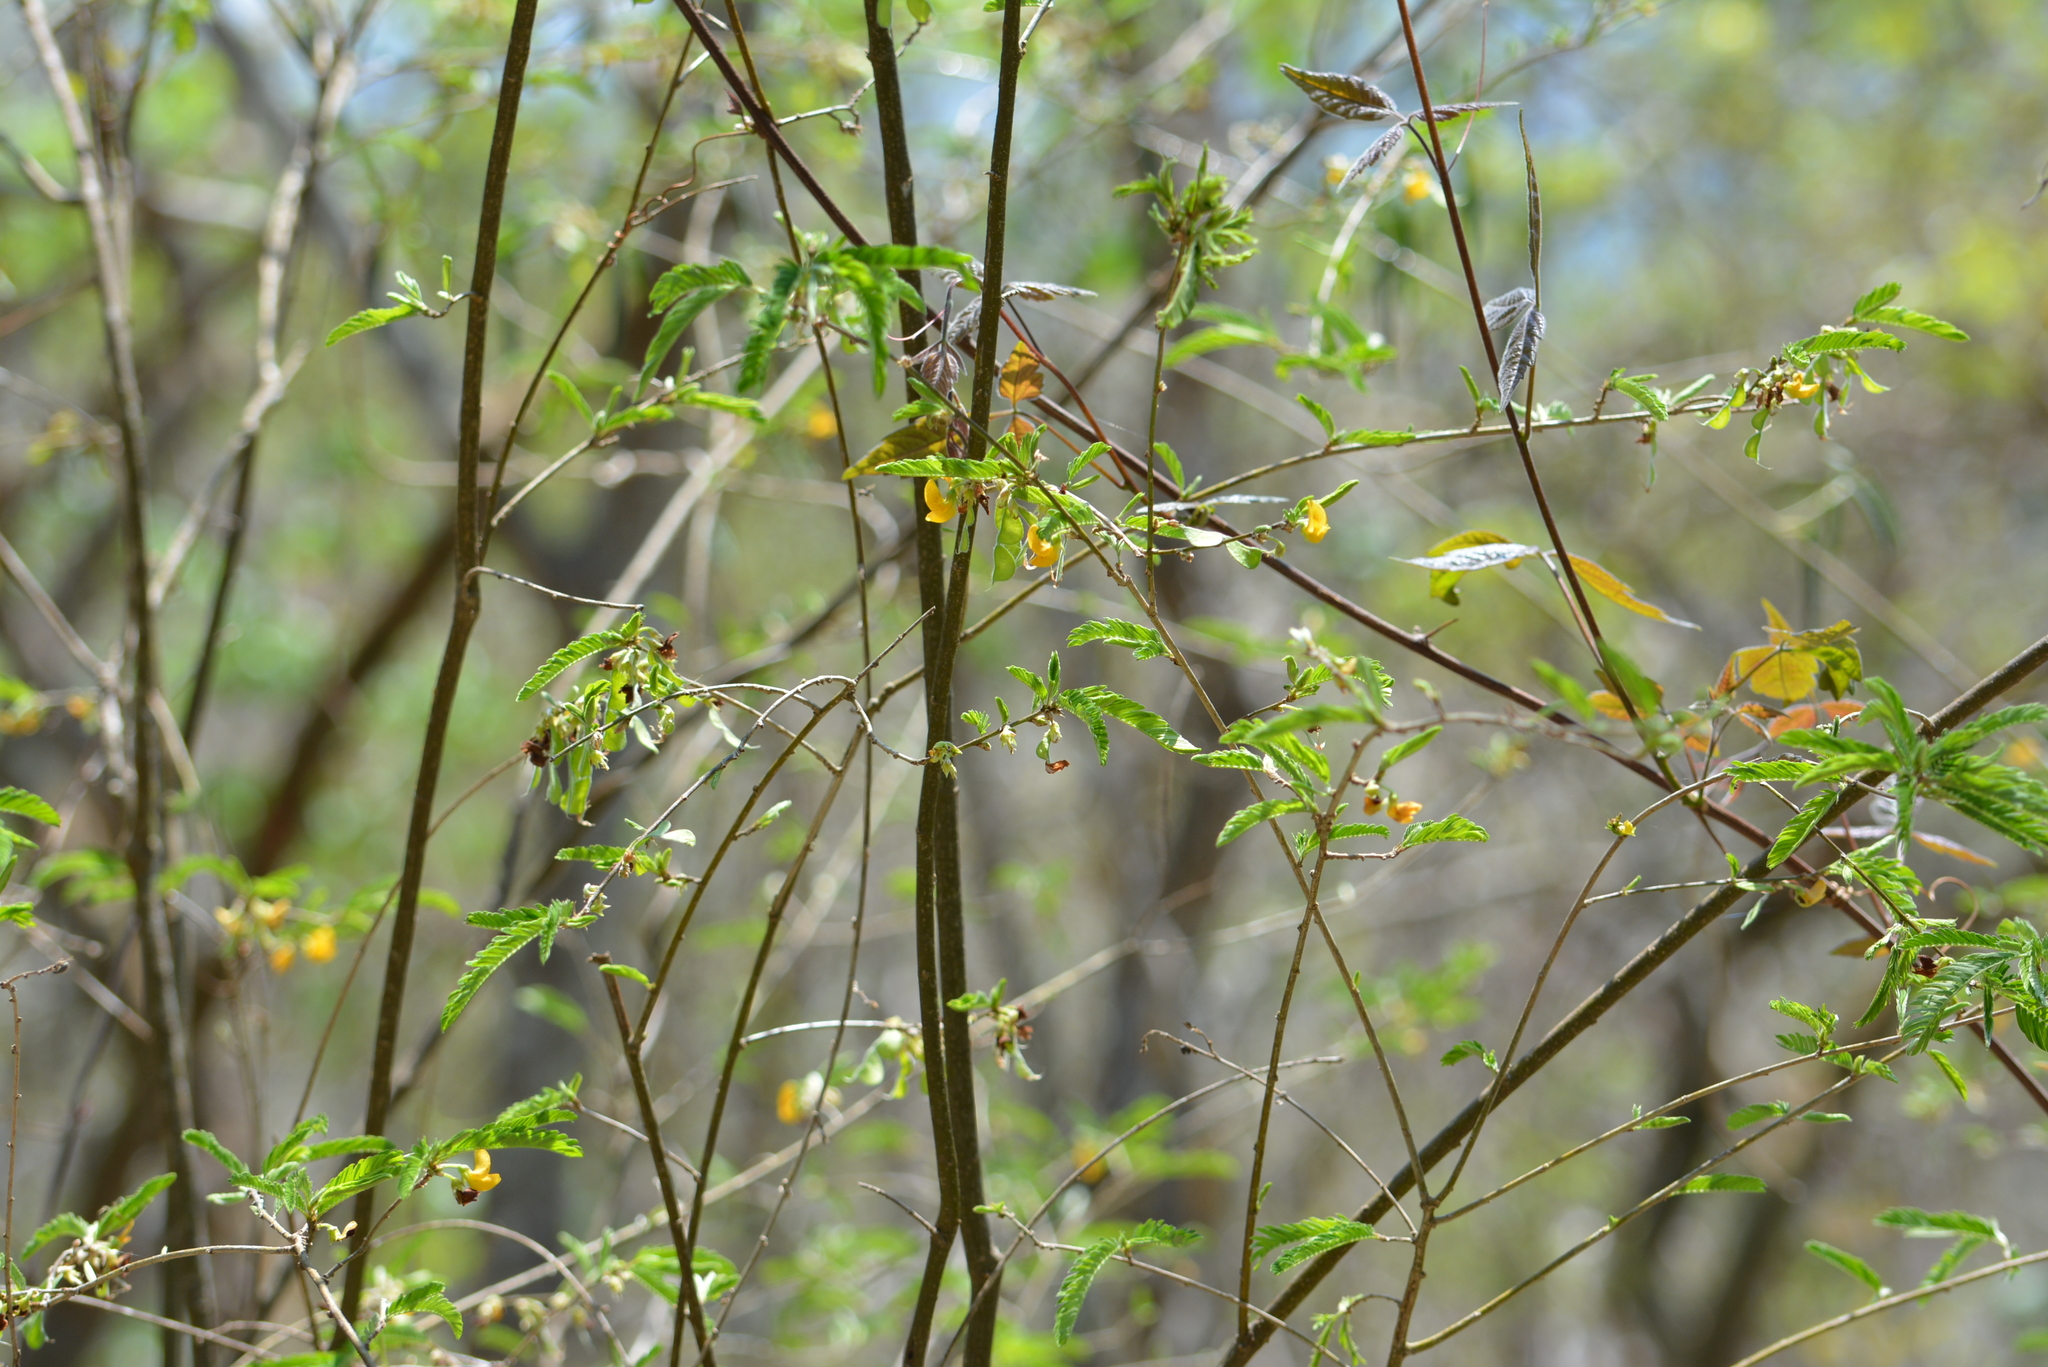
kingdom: Plantae
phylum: Tracheophyta
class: Magnoliopsida
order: Fabales
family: Fabaceae
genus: Ctenodon
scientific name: Ctenodon compactus
